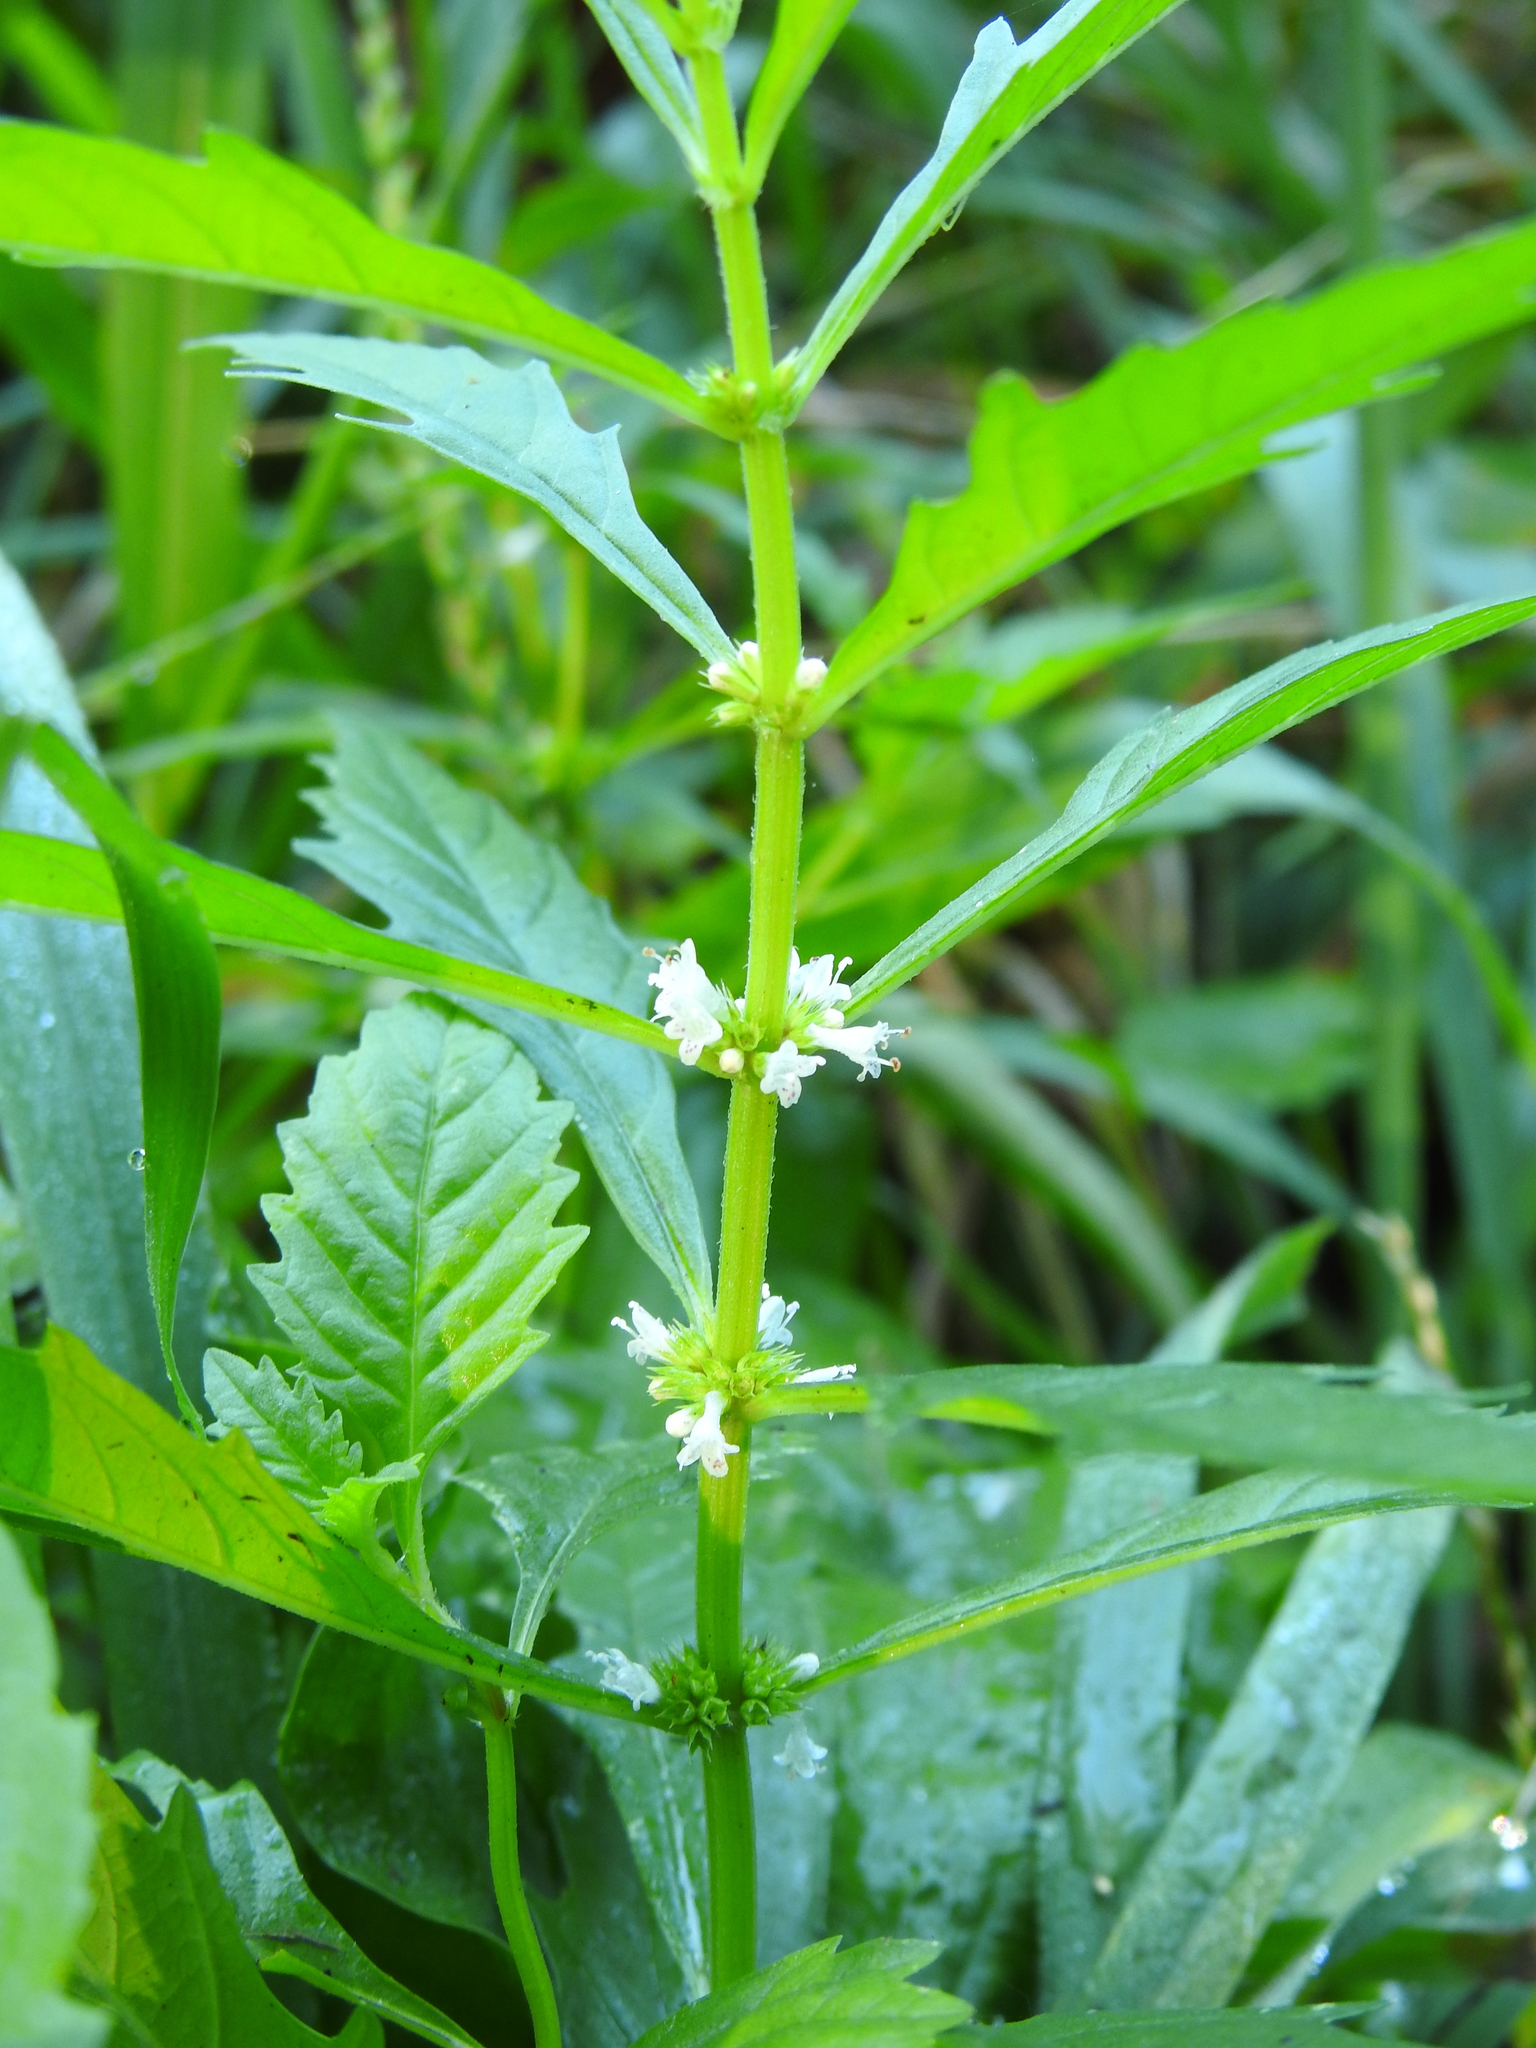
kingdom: Plantae
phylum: Tracheophyta
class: Magnoliopsida
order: Lamiales
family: Lamiaceae
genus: Lycopus
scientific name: Lycopus americanus
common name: American bugleweed
